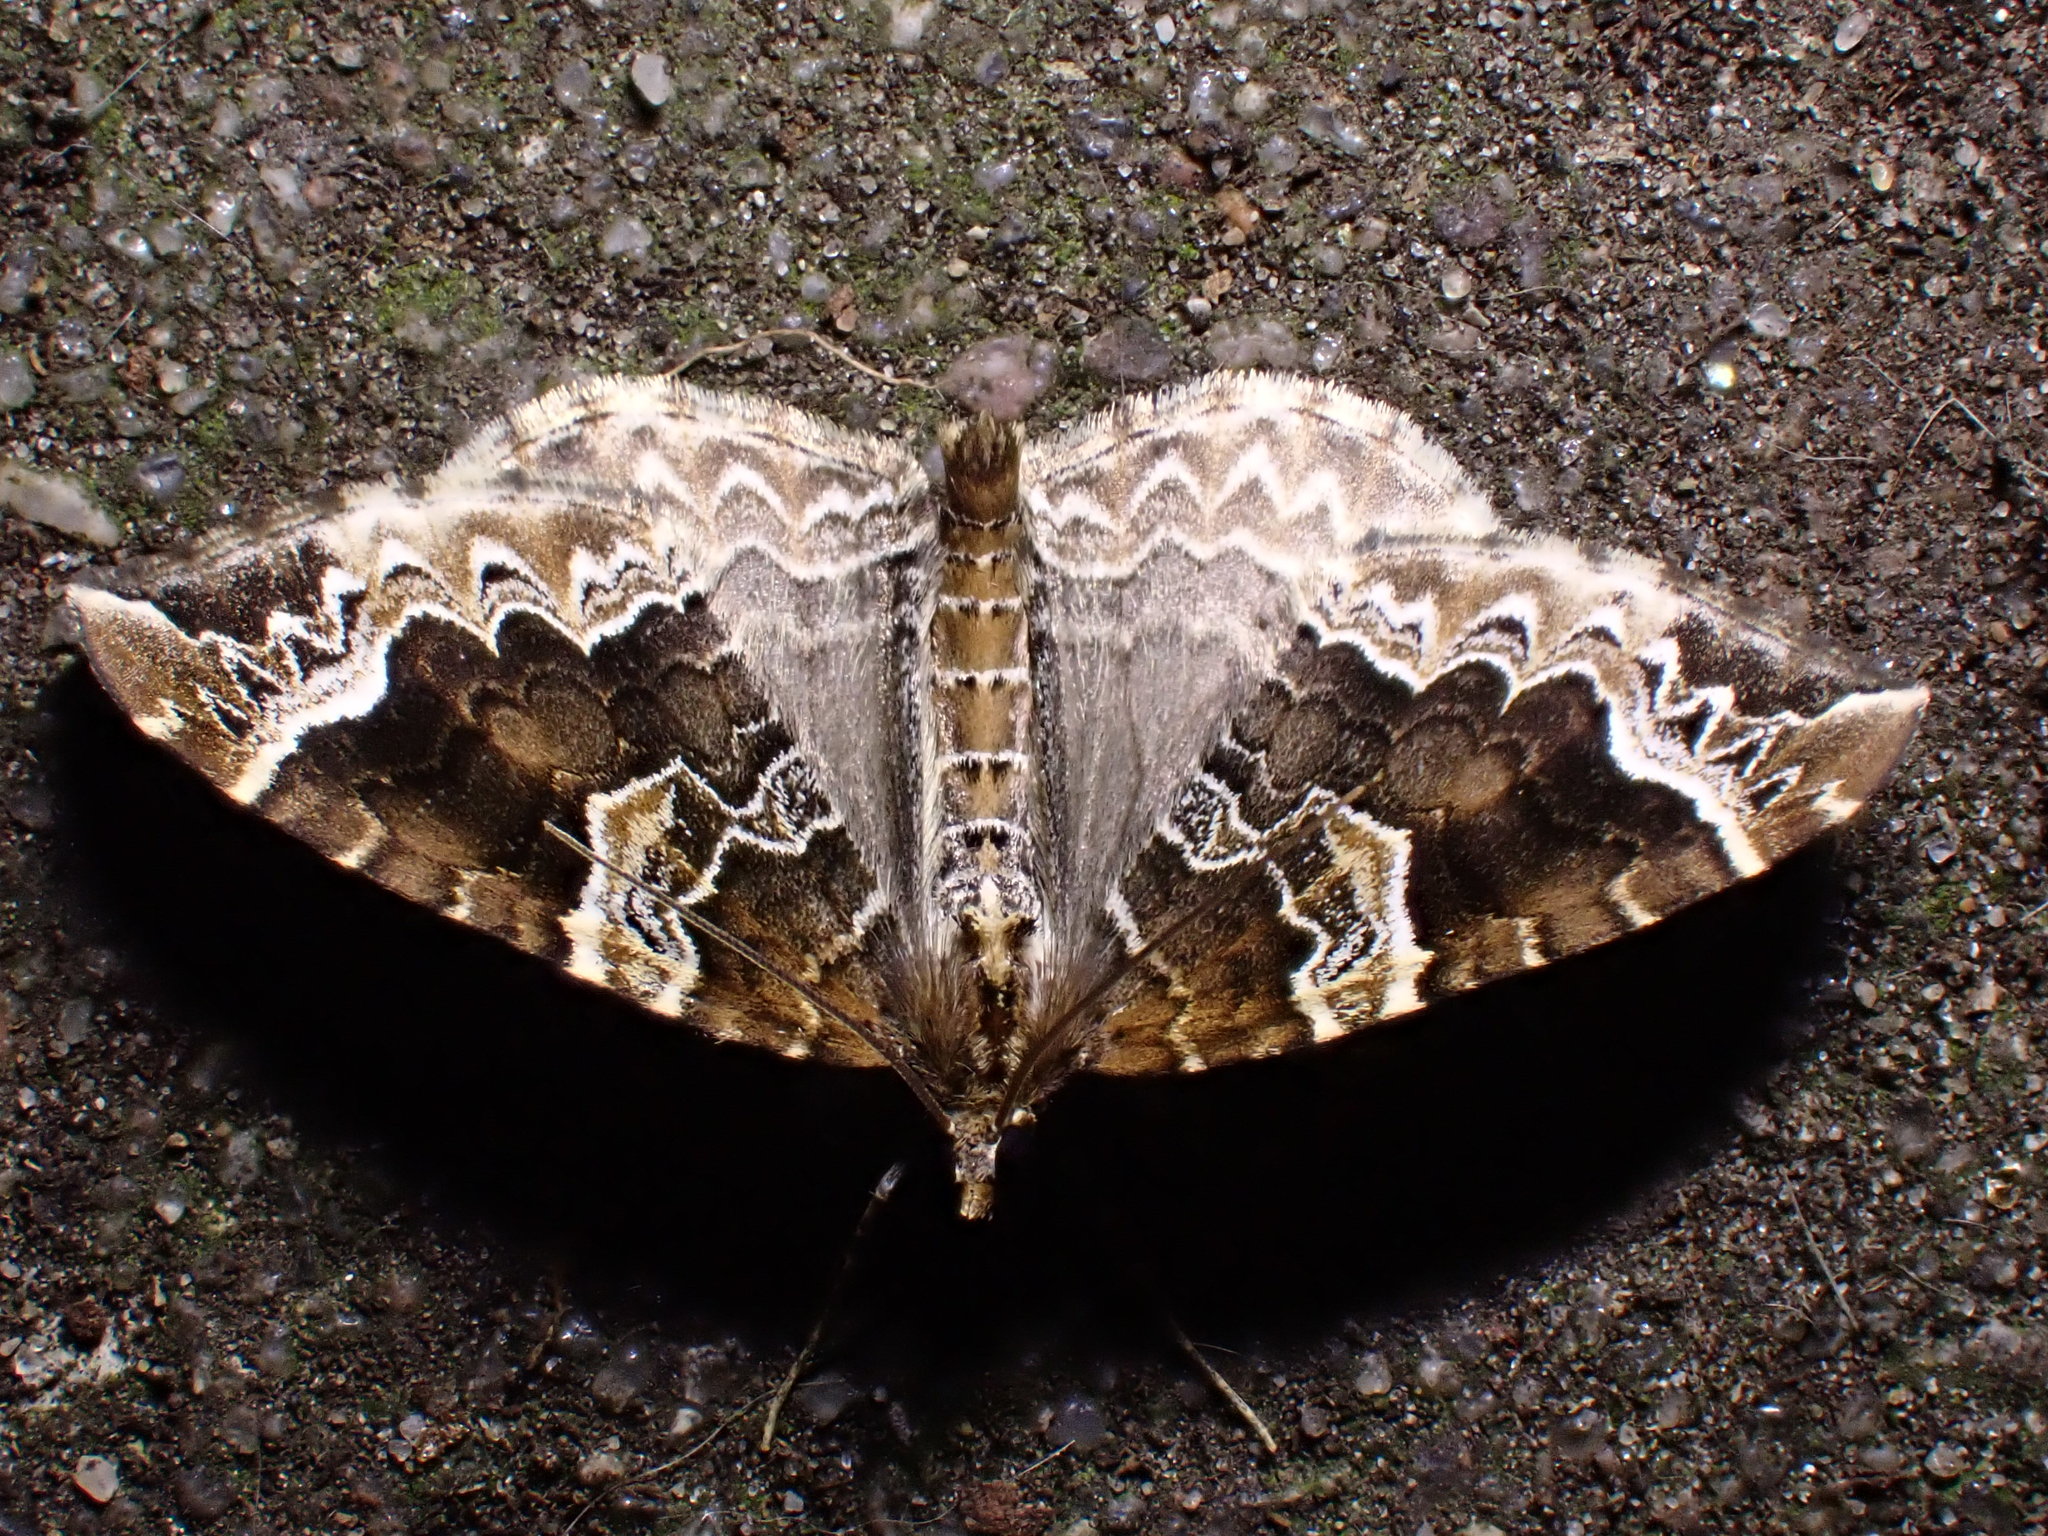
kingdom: Animalia
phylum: Arthropoda
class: Insecta
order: Lepidoptera
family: Geometridae
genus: Eulithis
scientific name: Eulithis prunata
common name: Phoenix
